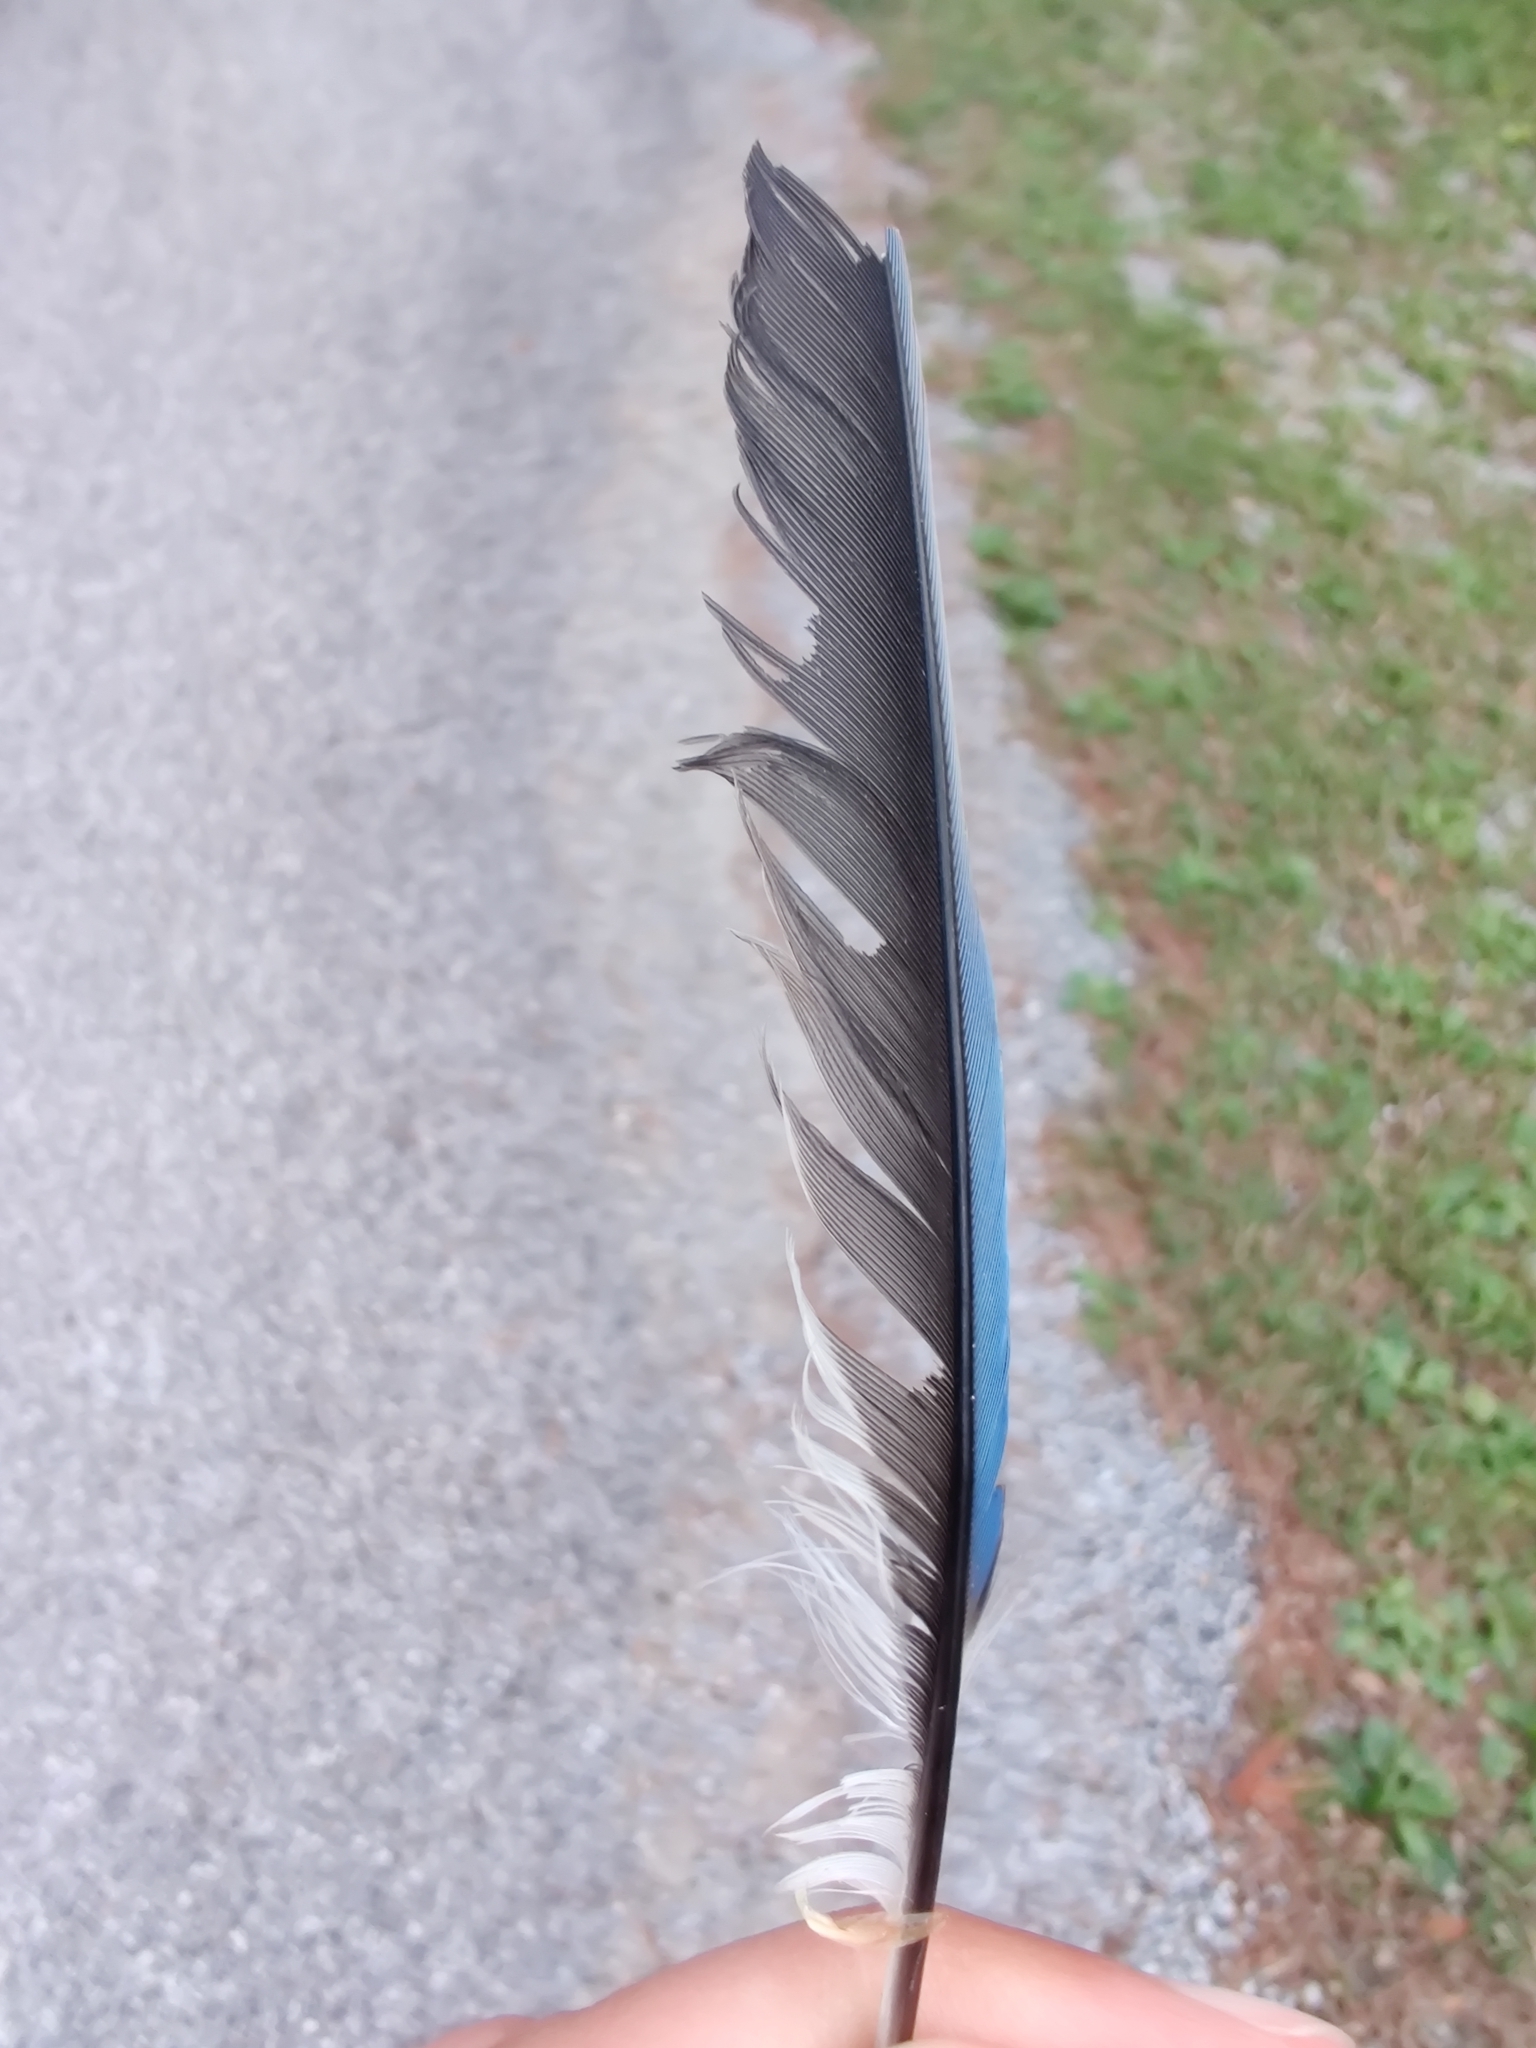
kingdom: Animalia
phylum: Chordata
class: Aves
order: Passeriformes
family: Corvidae
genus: Cyanocitta
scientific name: Cyanocitta cristata
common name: Blue jay
